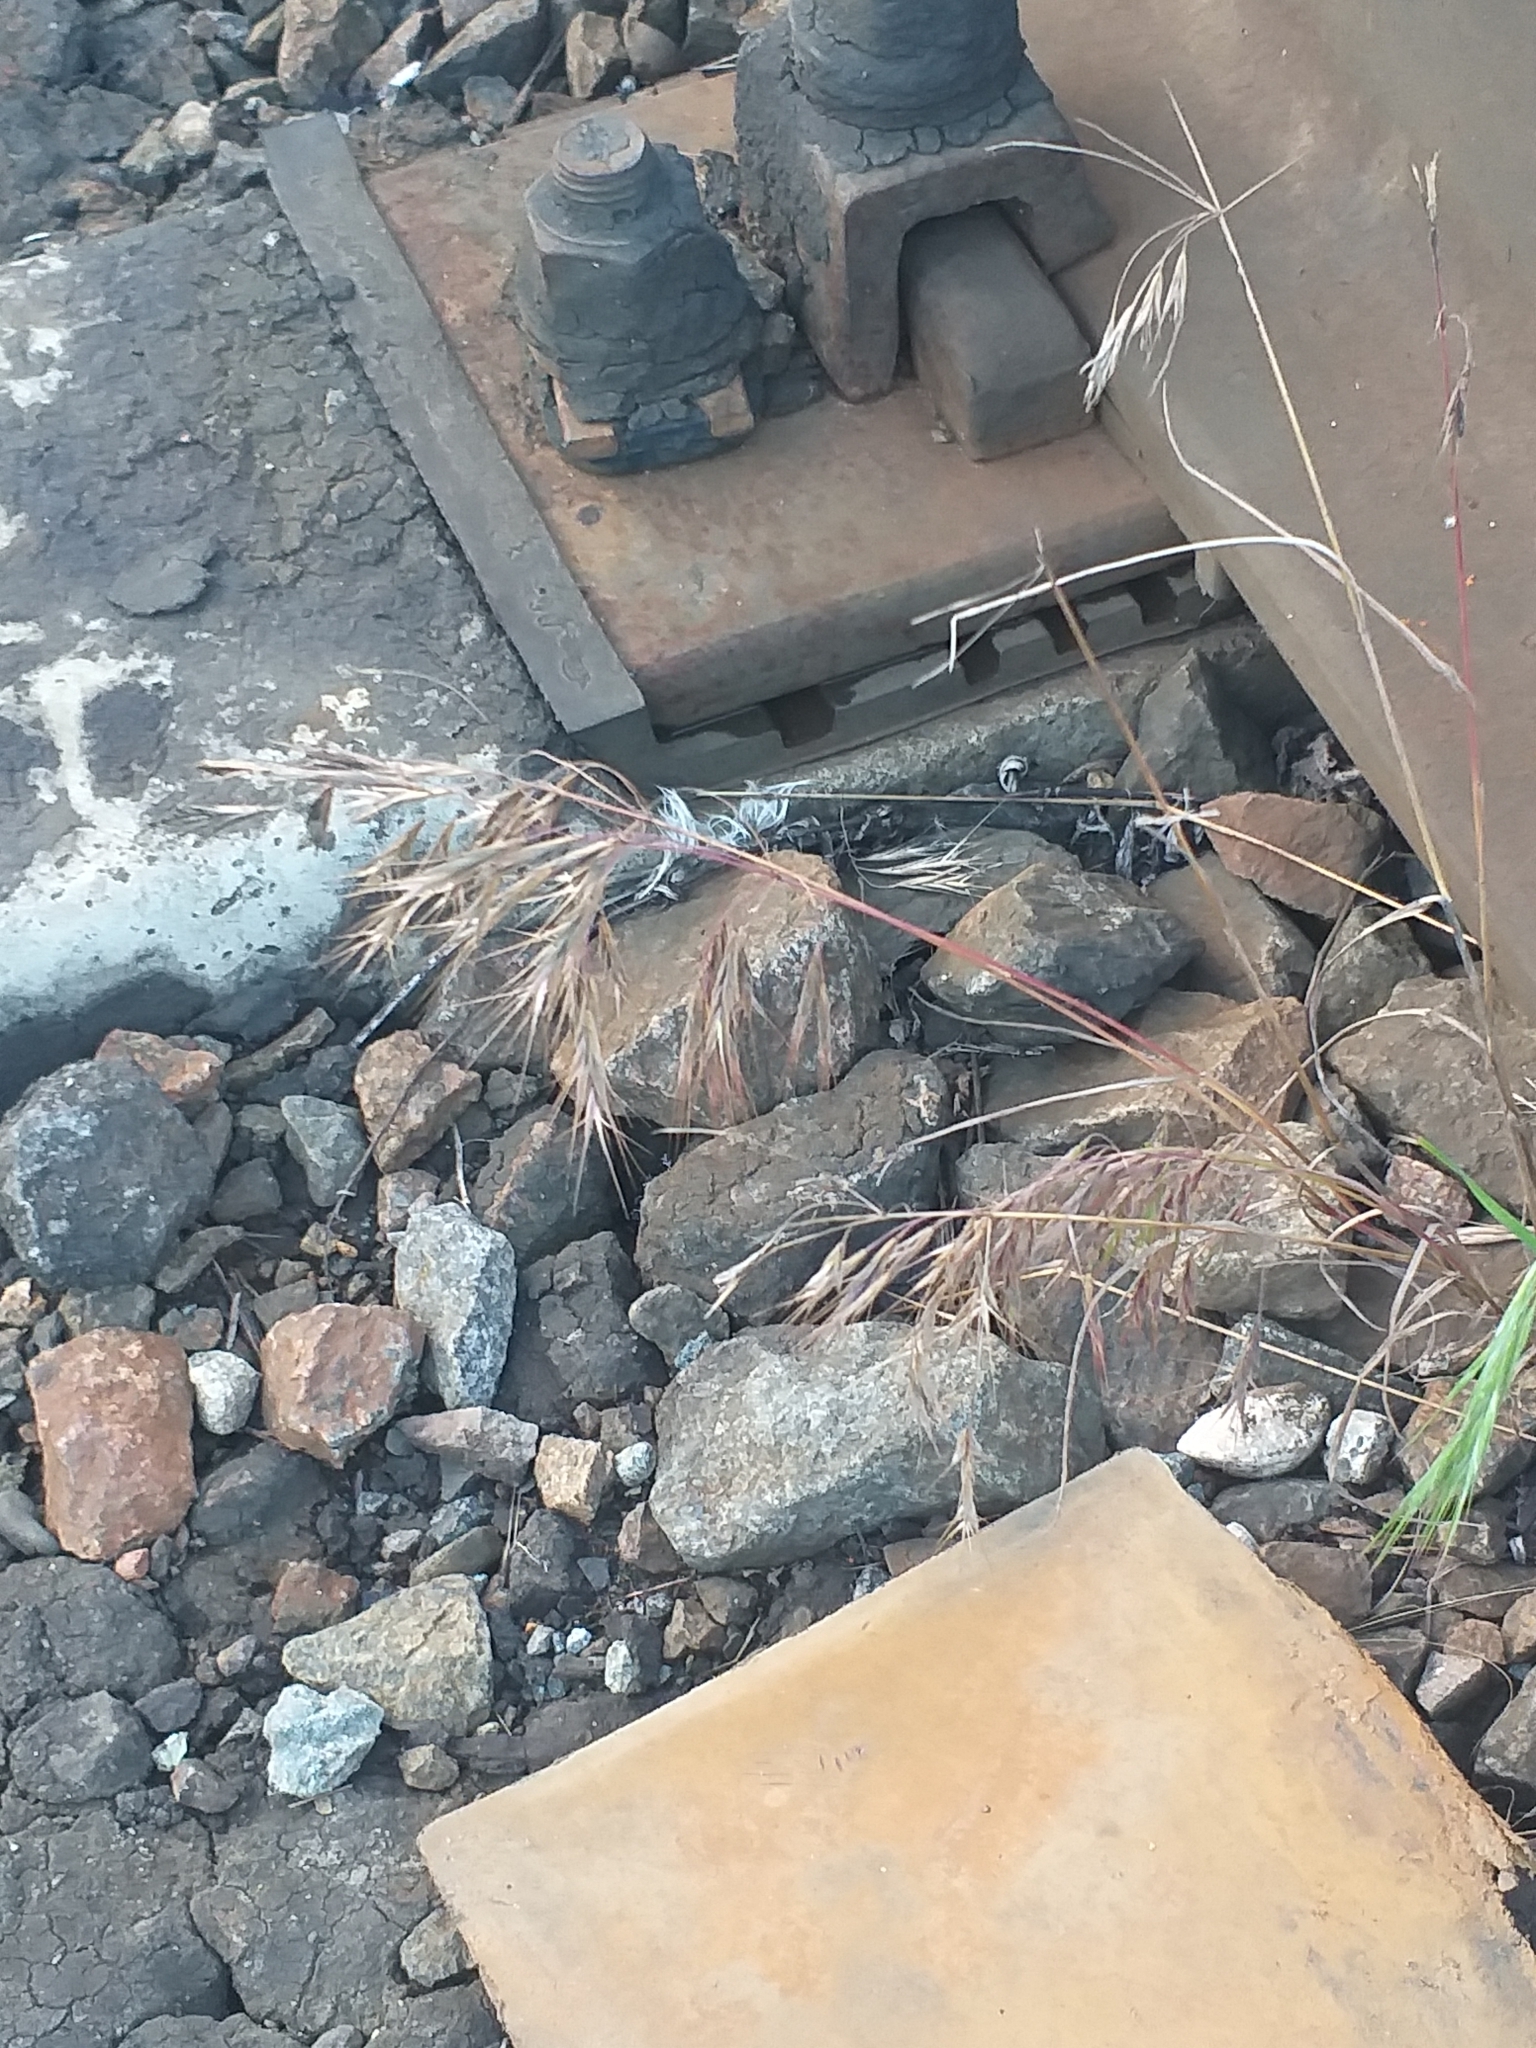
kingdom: Plantae
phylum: Tracheophyta
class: Liliopsida
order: Poales
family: Poaceae
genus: Bromus
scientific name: Bromus tectorum
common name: Cheatgrass
